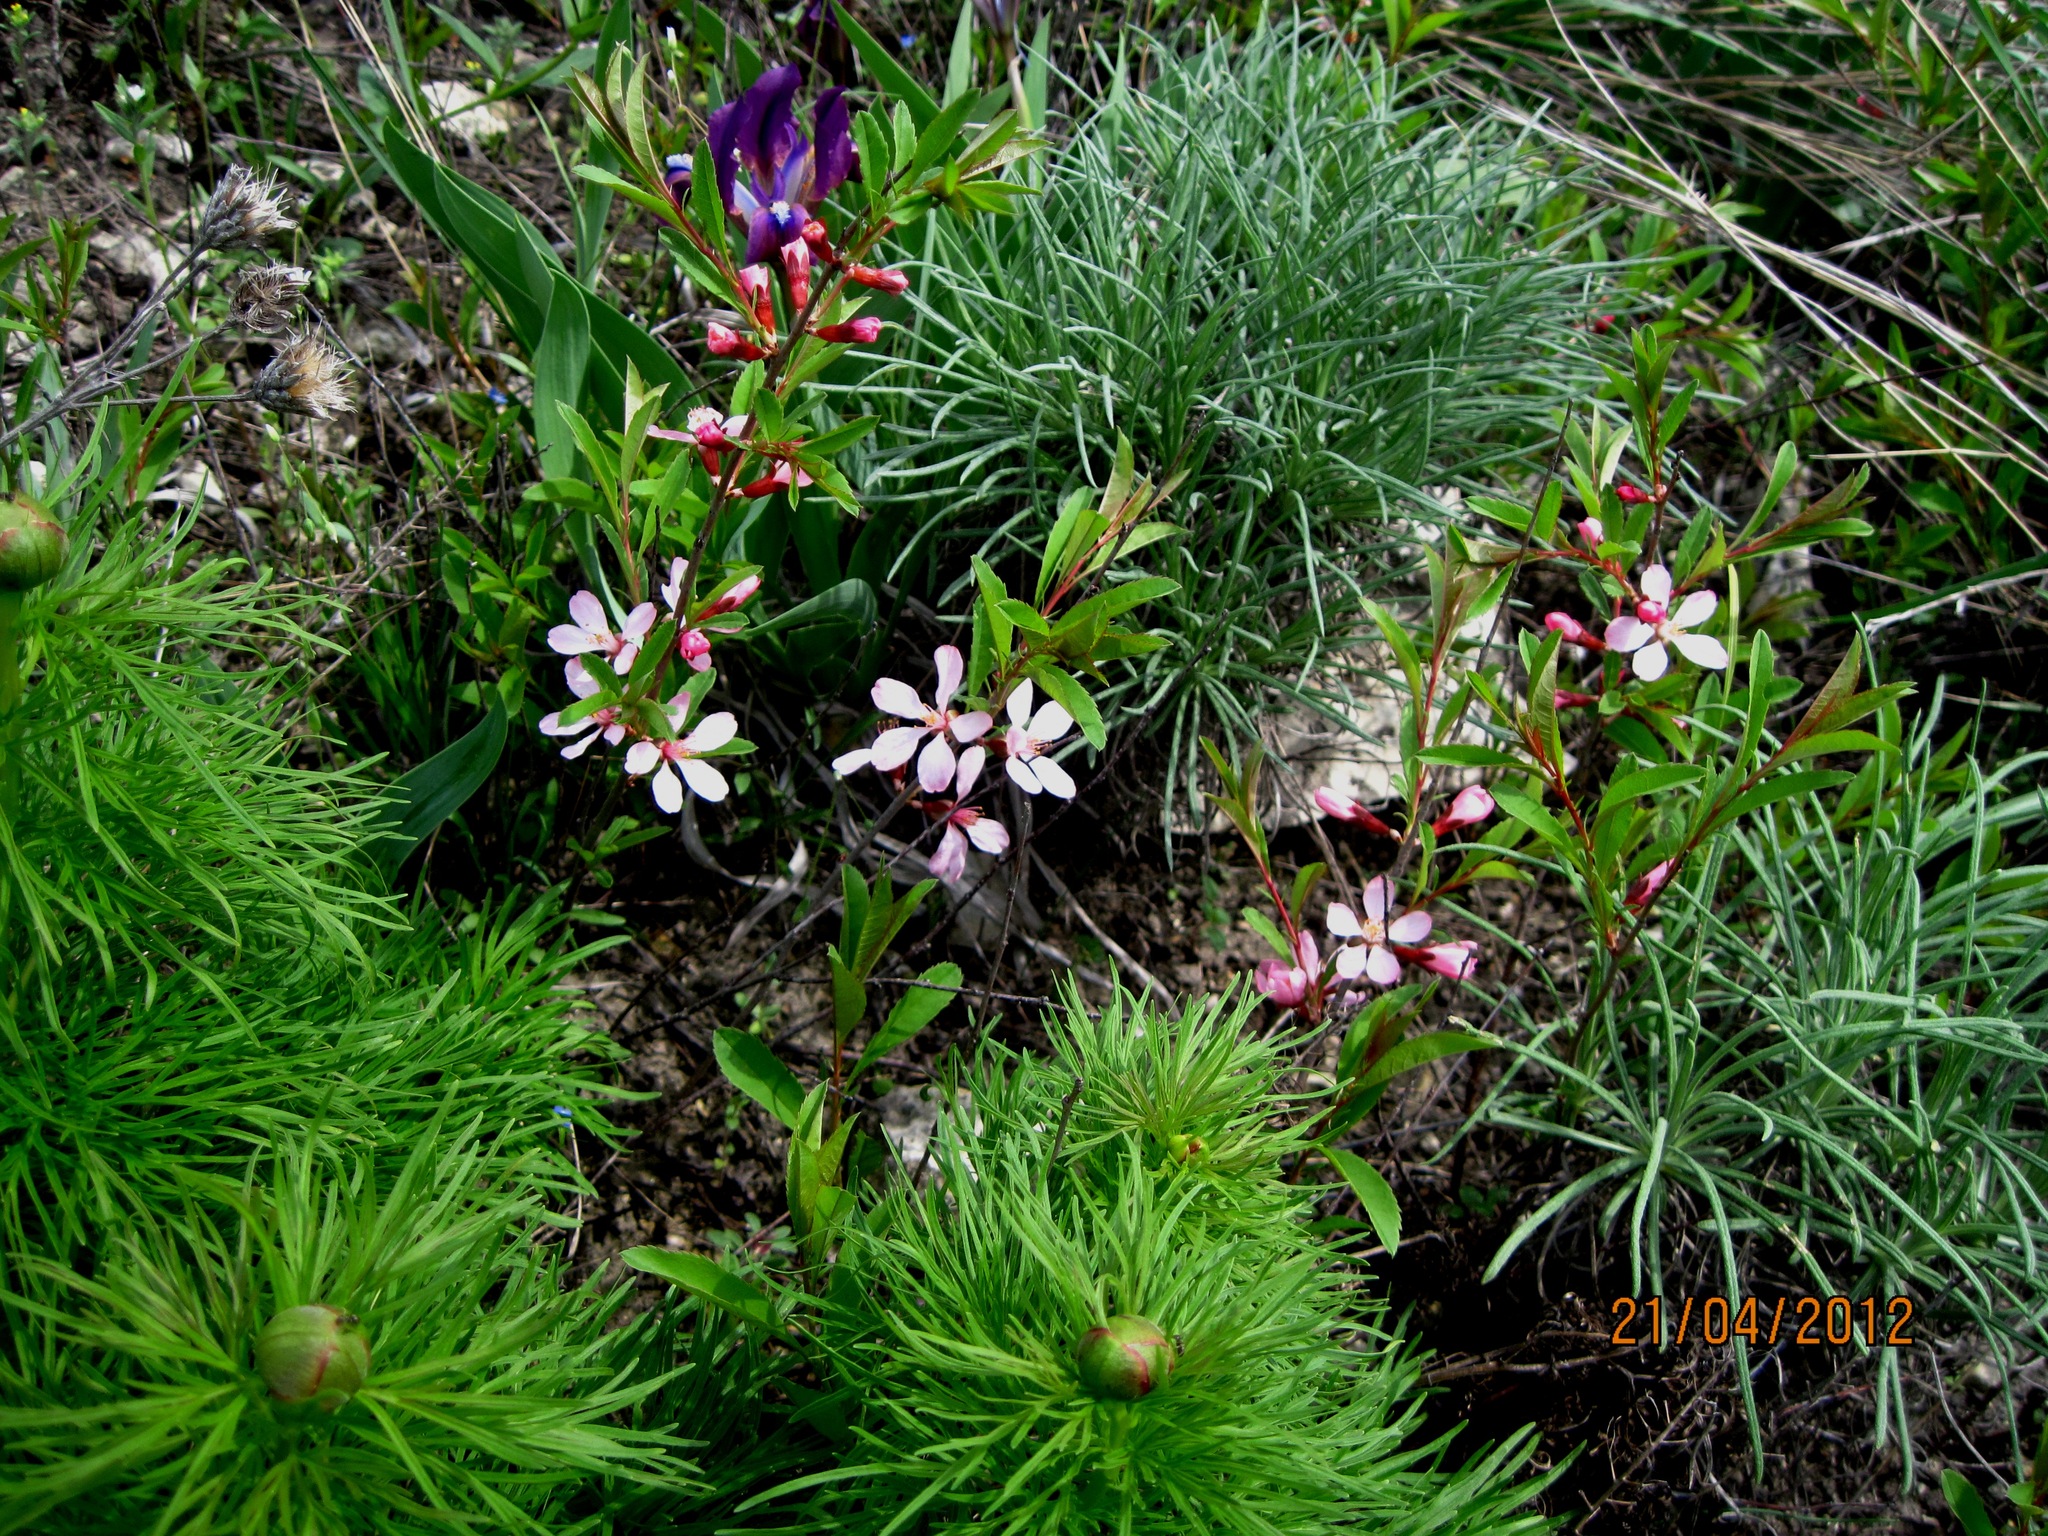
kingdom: Plantae
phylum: Tracheophyta
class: Magnoliopsida
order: Rosales
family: Rosaceae
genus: Prunus
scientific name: Prunus tenella
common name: Dwarf russian almond
